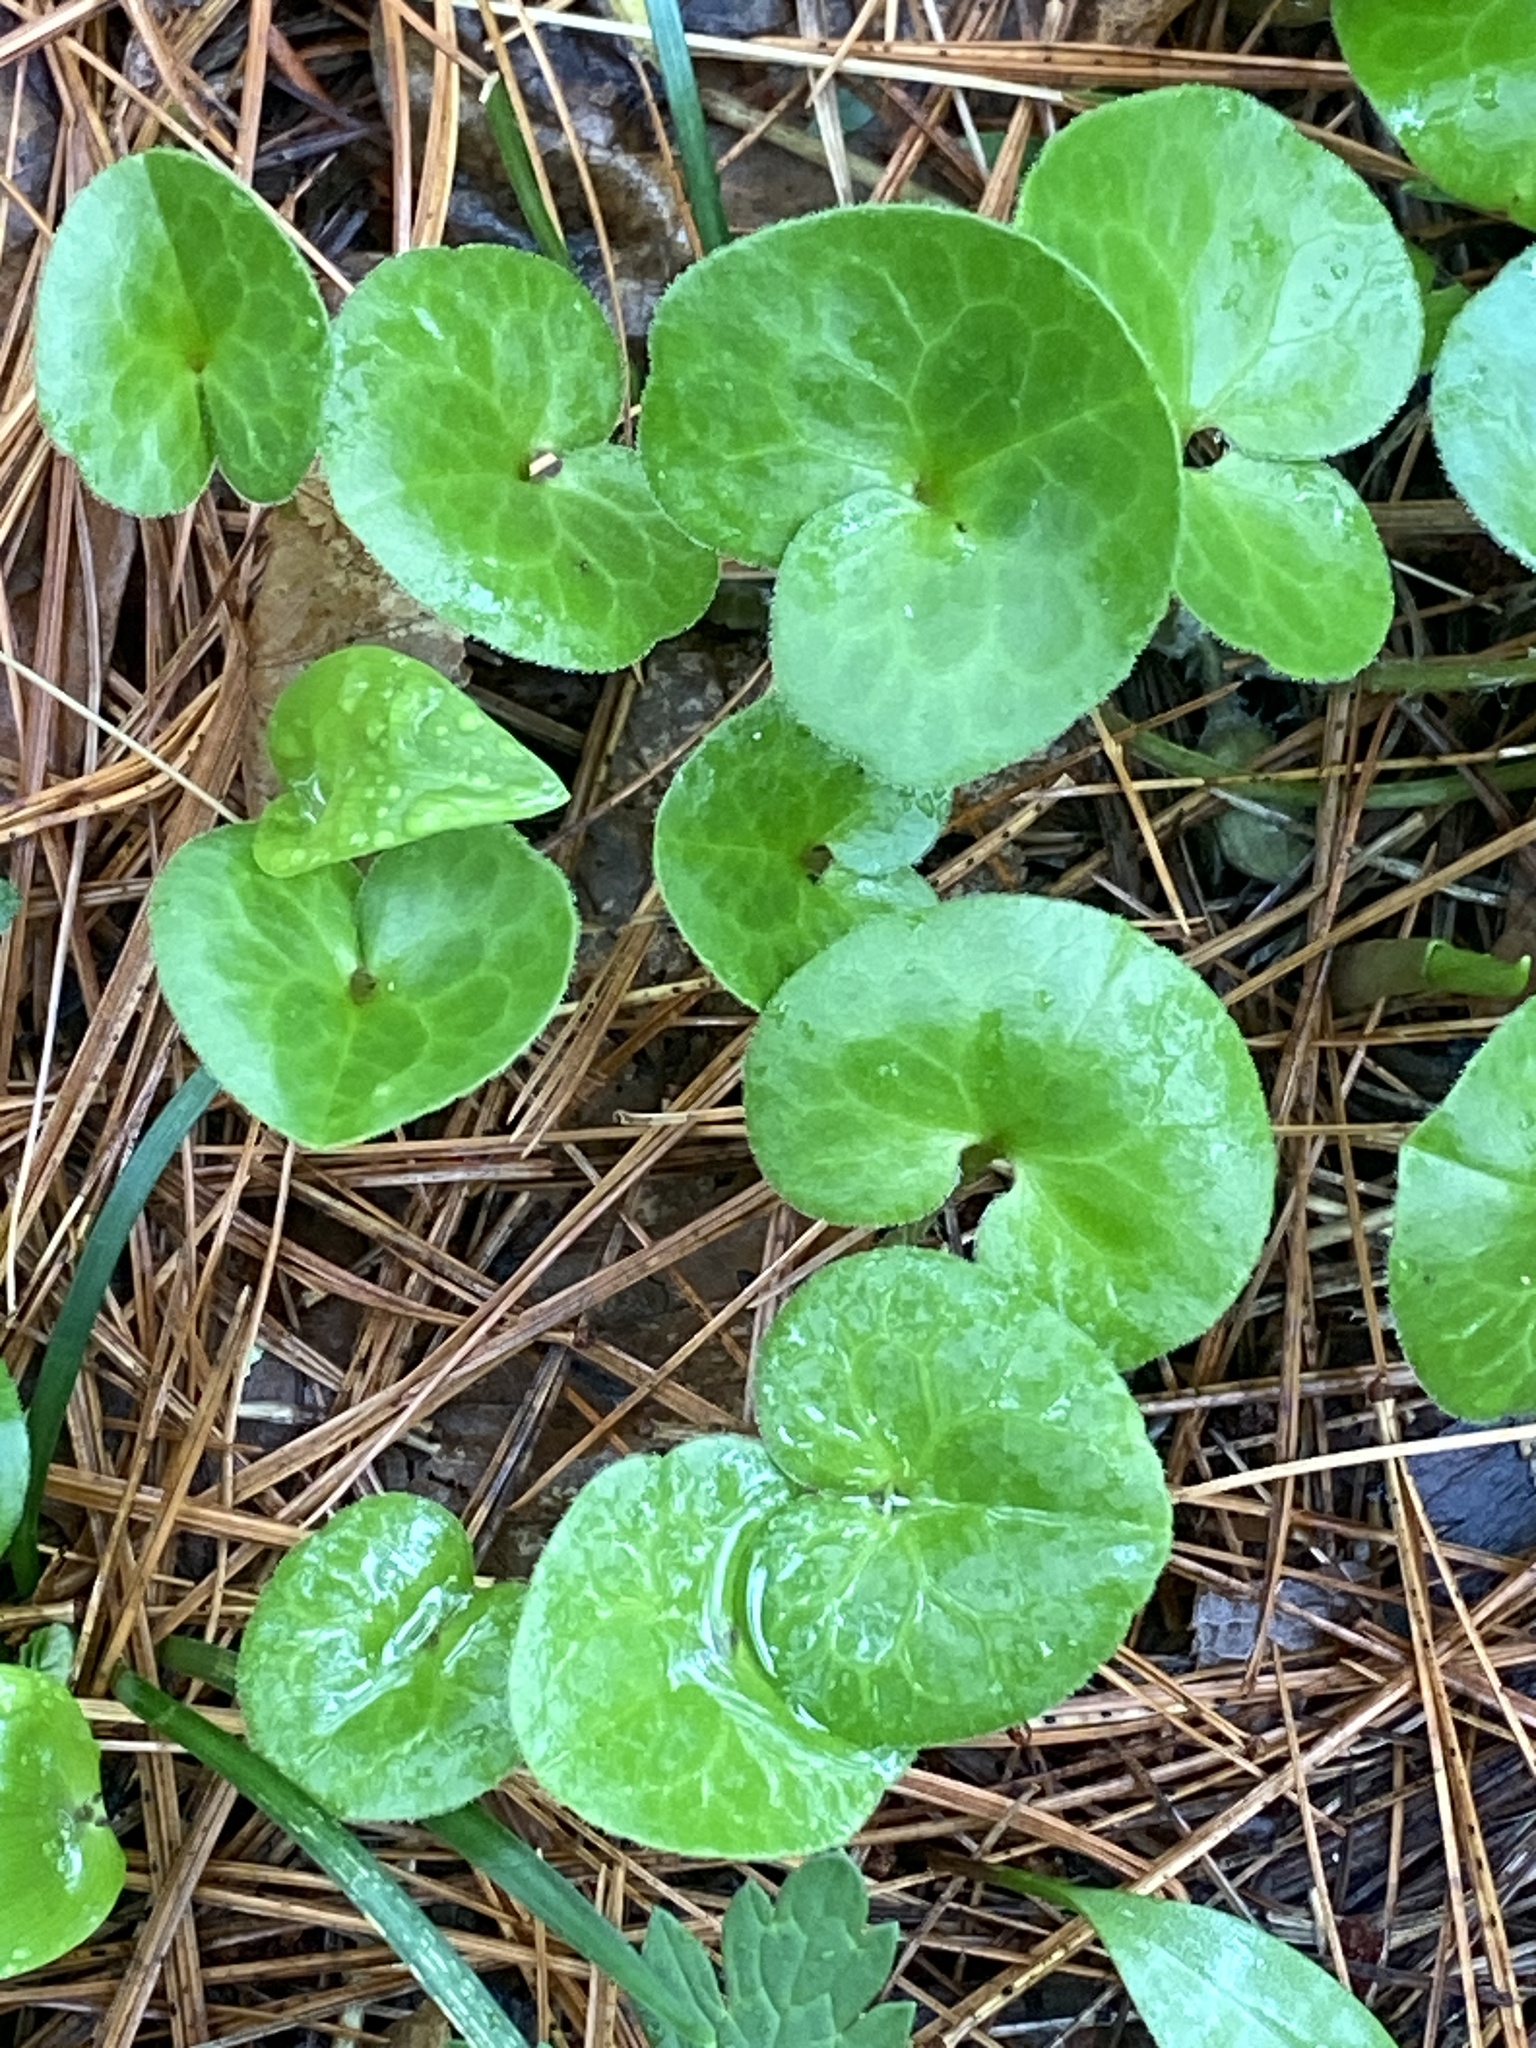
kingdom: Plantae
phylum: Tracheophyta
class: Magnoliopsida
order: Piperales
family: Aristolochiaceae
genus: Asarum
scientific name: Asarum europaeum
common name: Asarabacca
